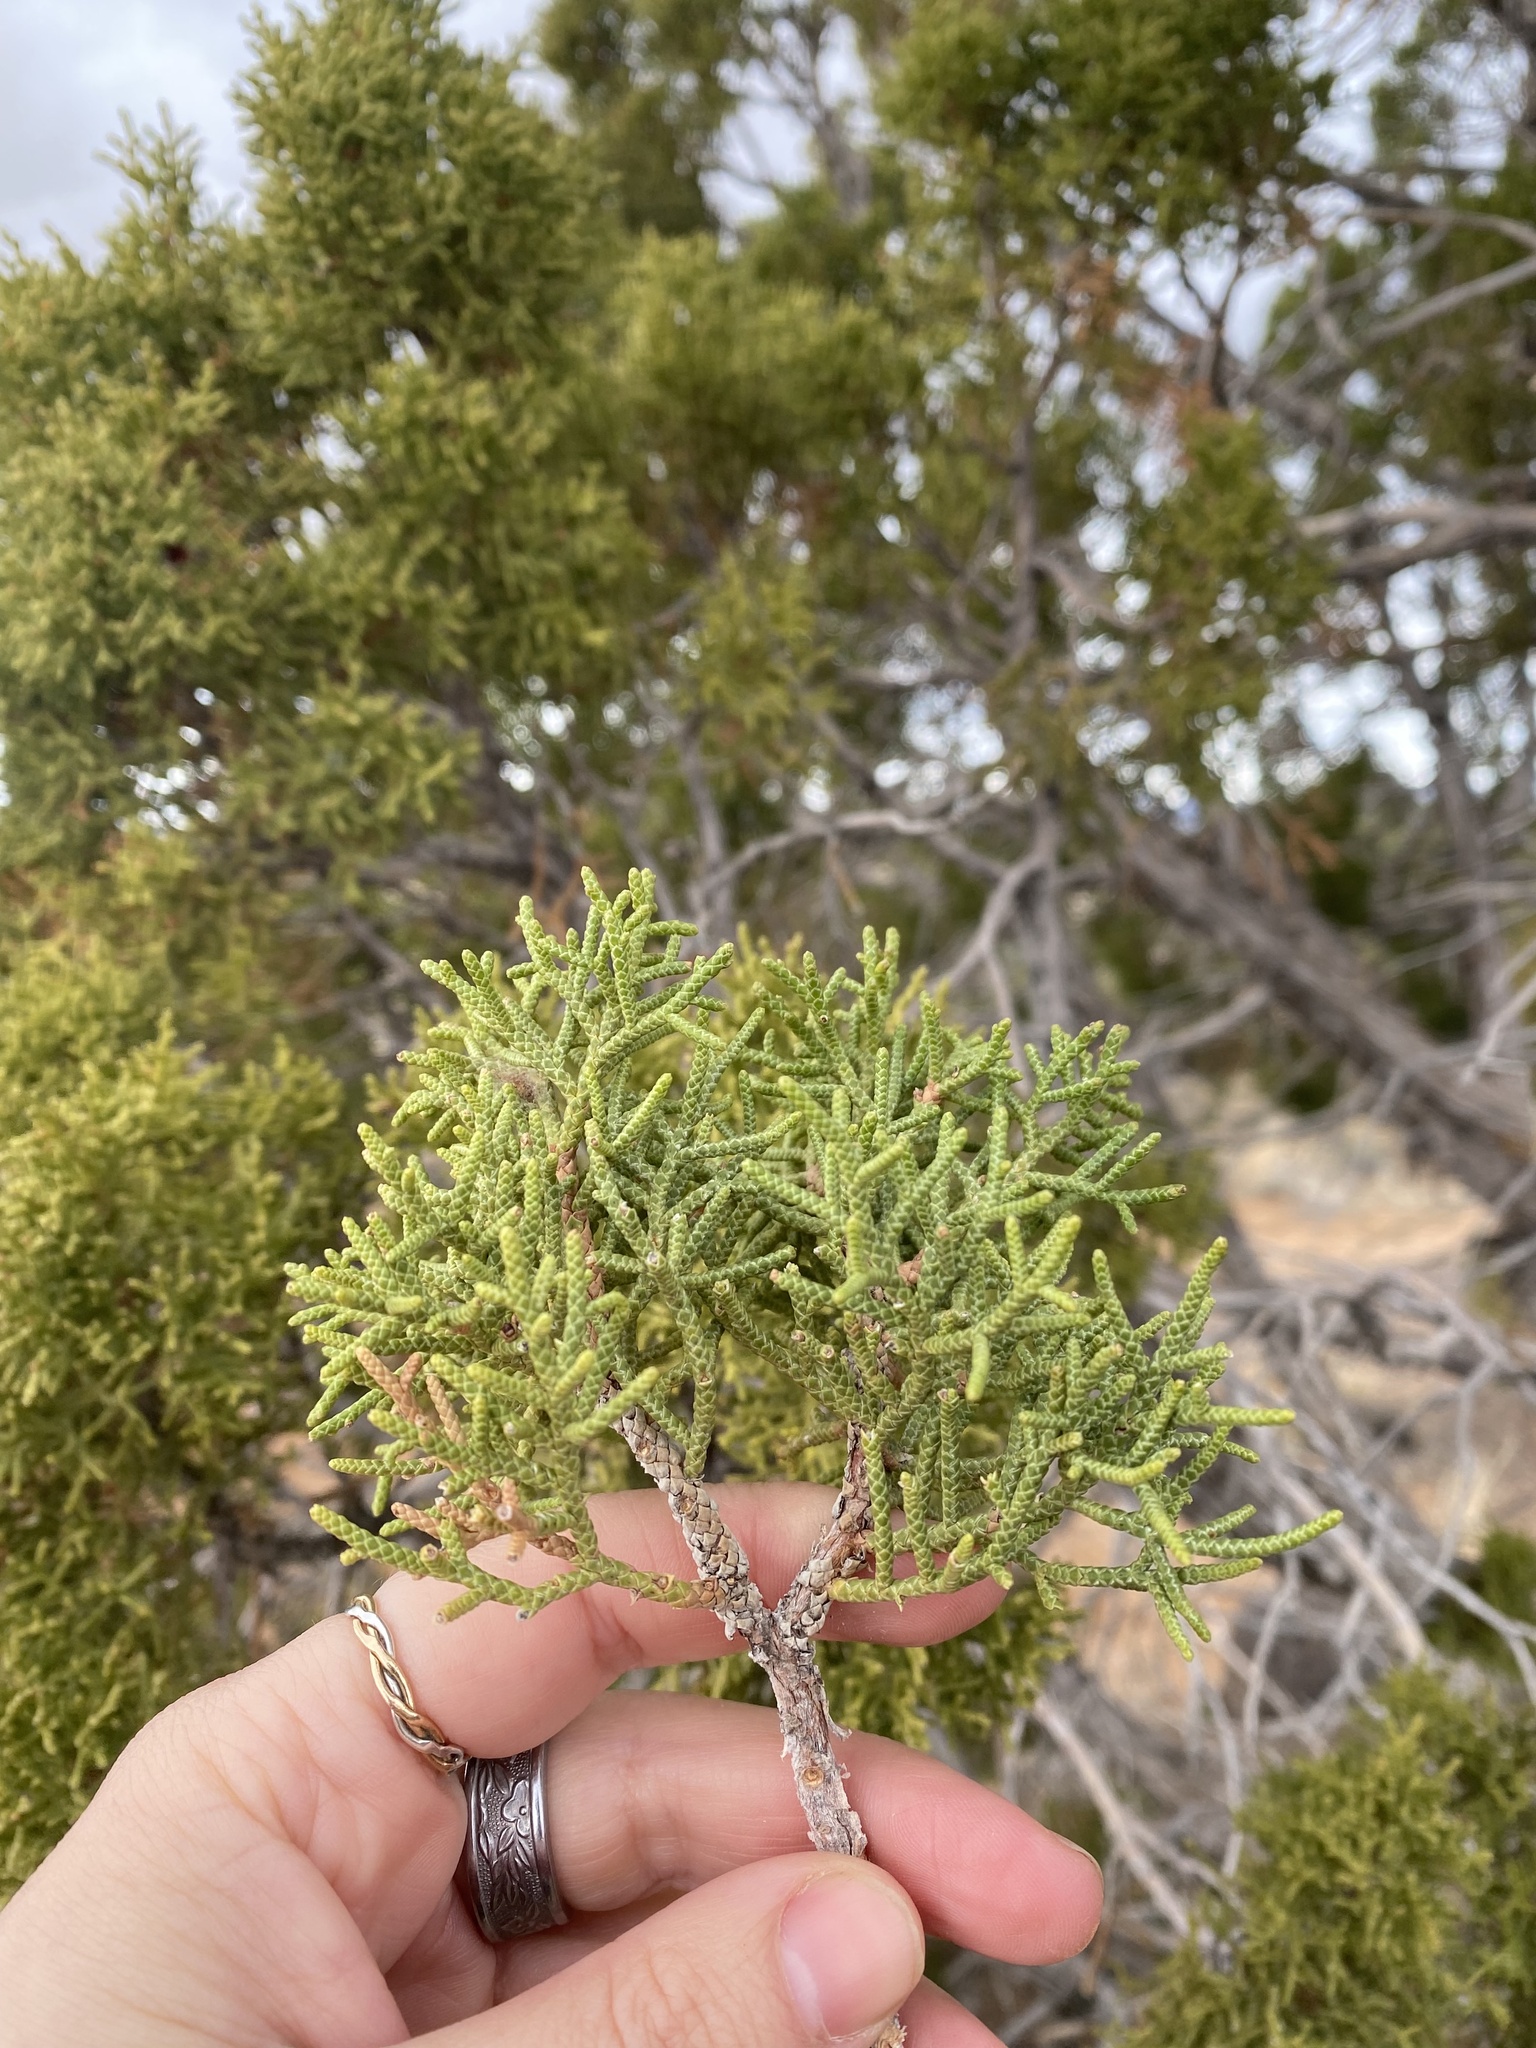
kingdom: Plantae
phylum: Tracheophyta
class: Pinopsida
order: Pinales
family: Cupressaceae
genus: Juniperus
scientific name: Juniperus osteosperma
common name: Utah juniper
